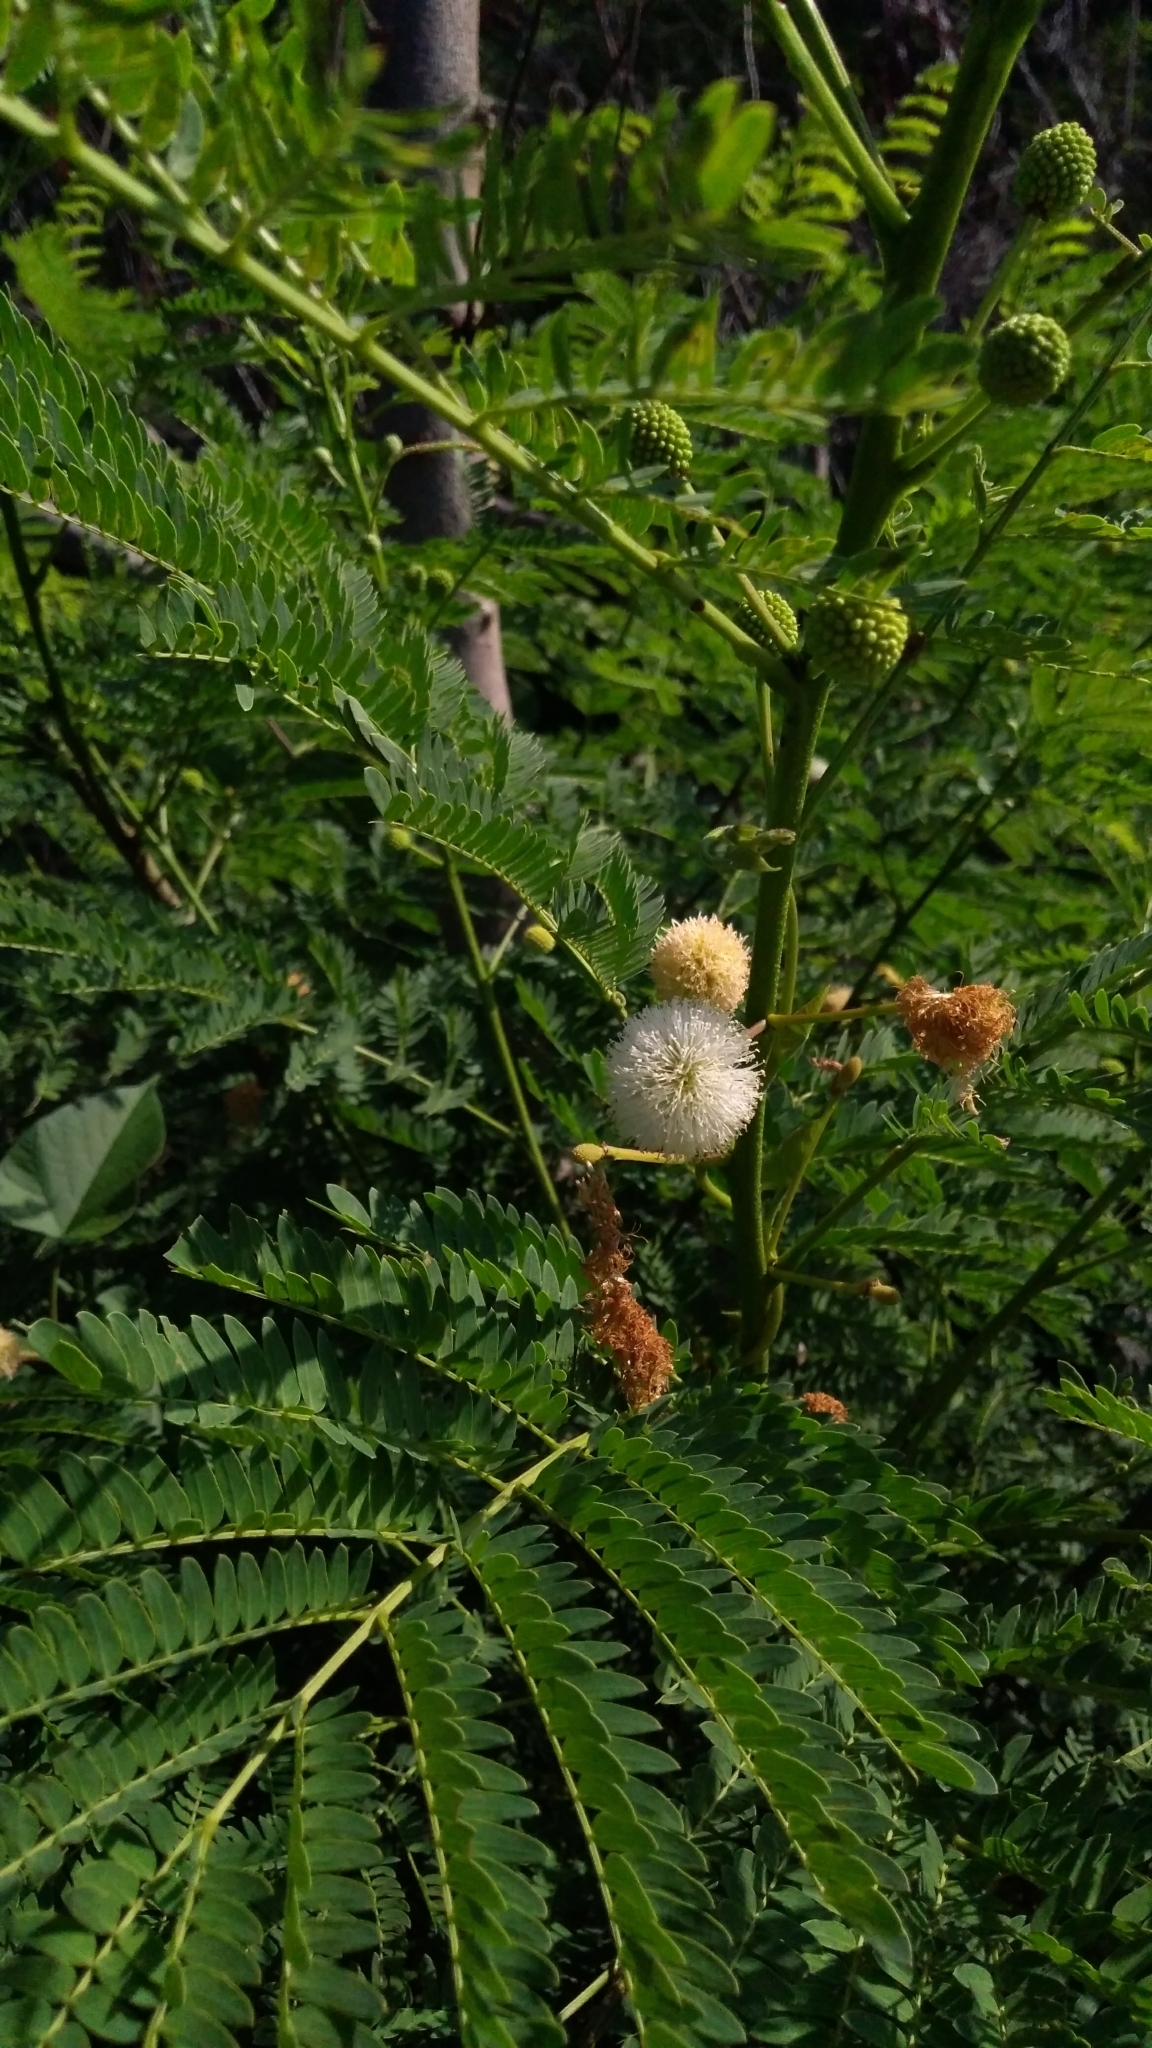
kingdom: Plantae
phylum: Tracheophyta
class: Magnoliopsida
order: Fabales
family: Fabaceae
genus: Leucaena
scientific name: Leucaena leucocephala
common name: White leadtree
